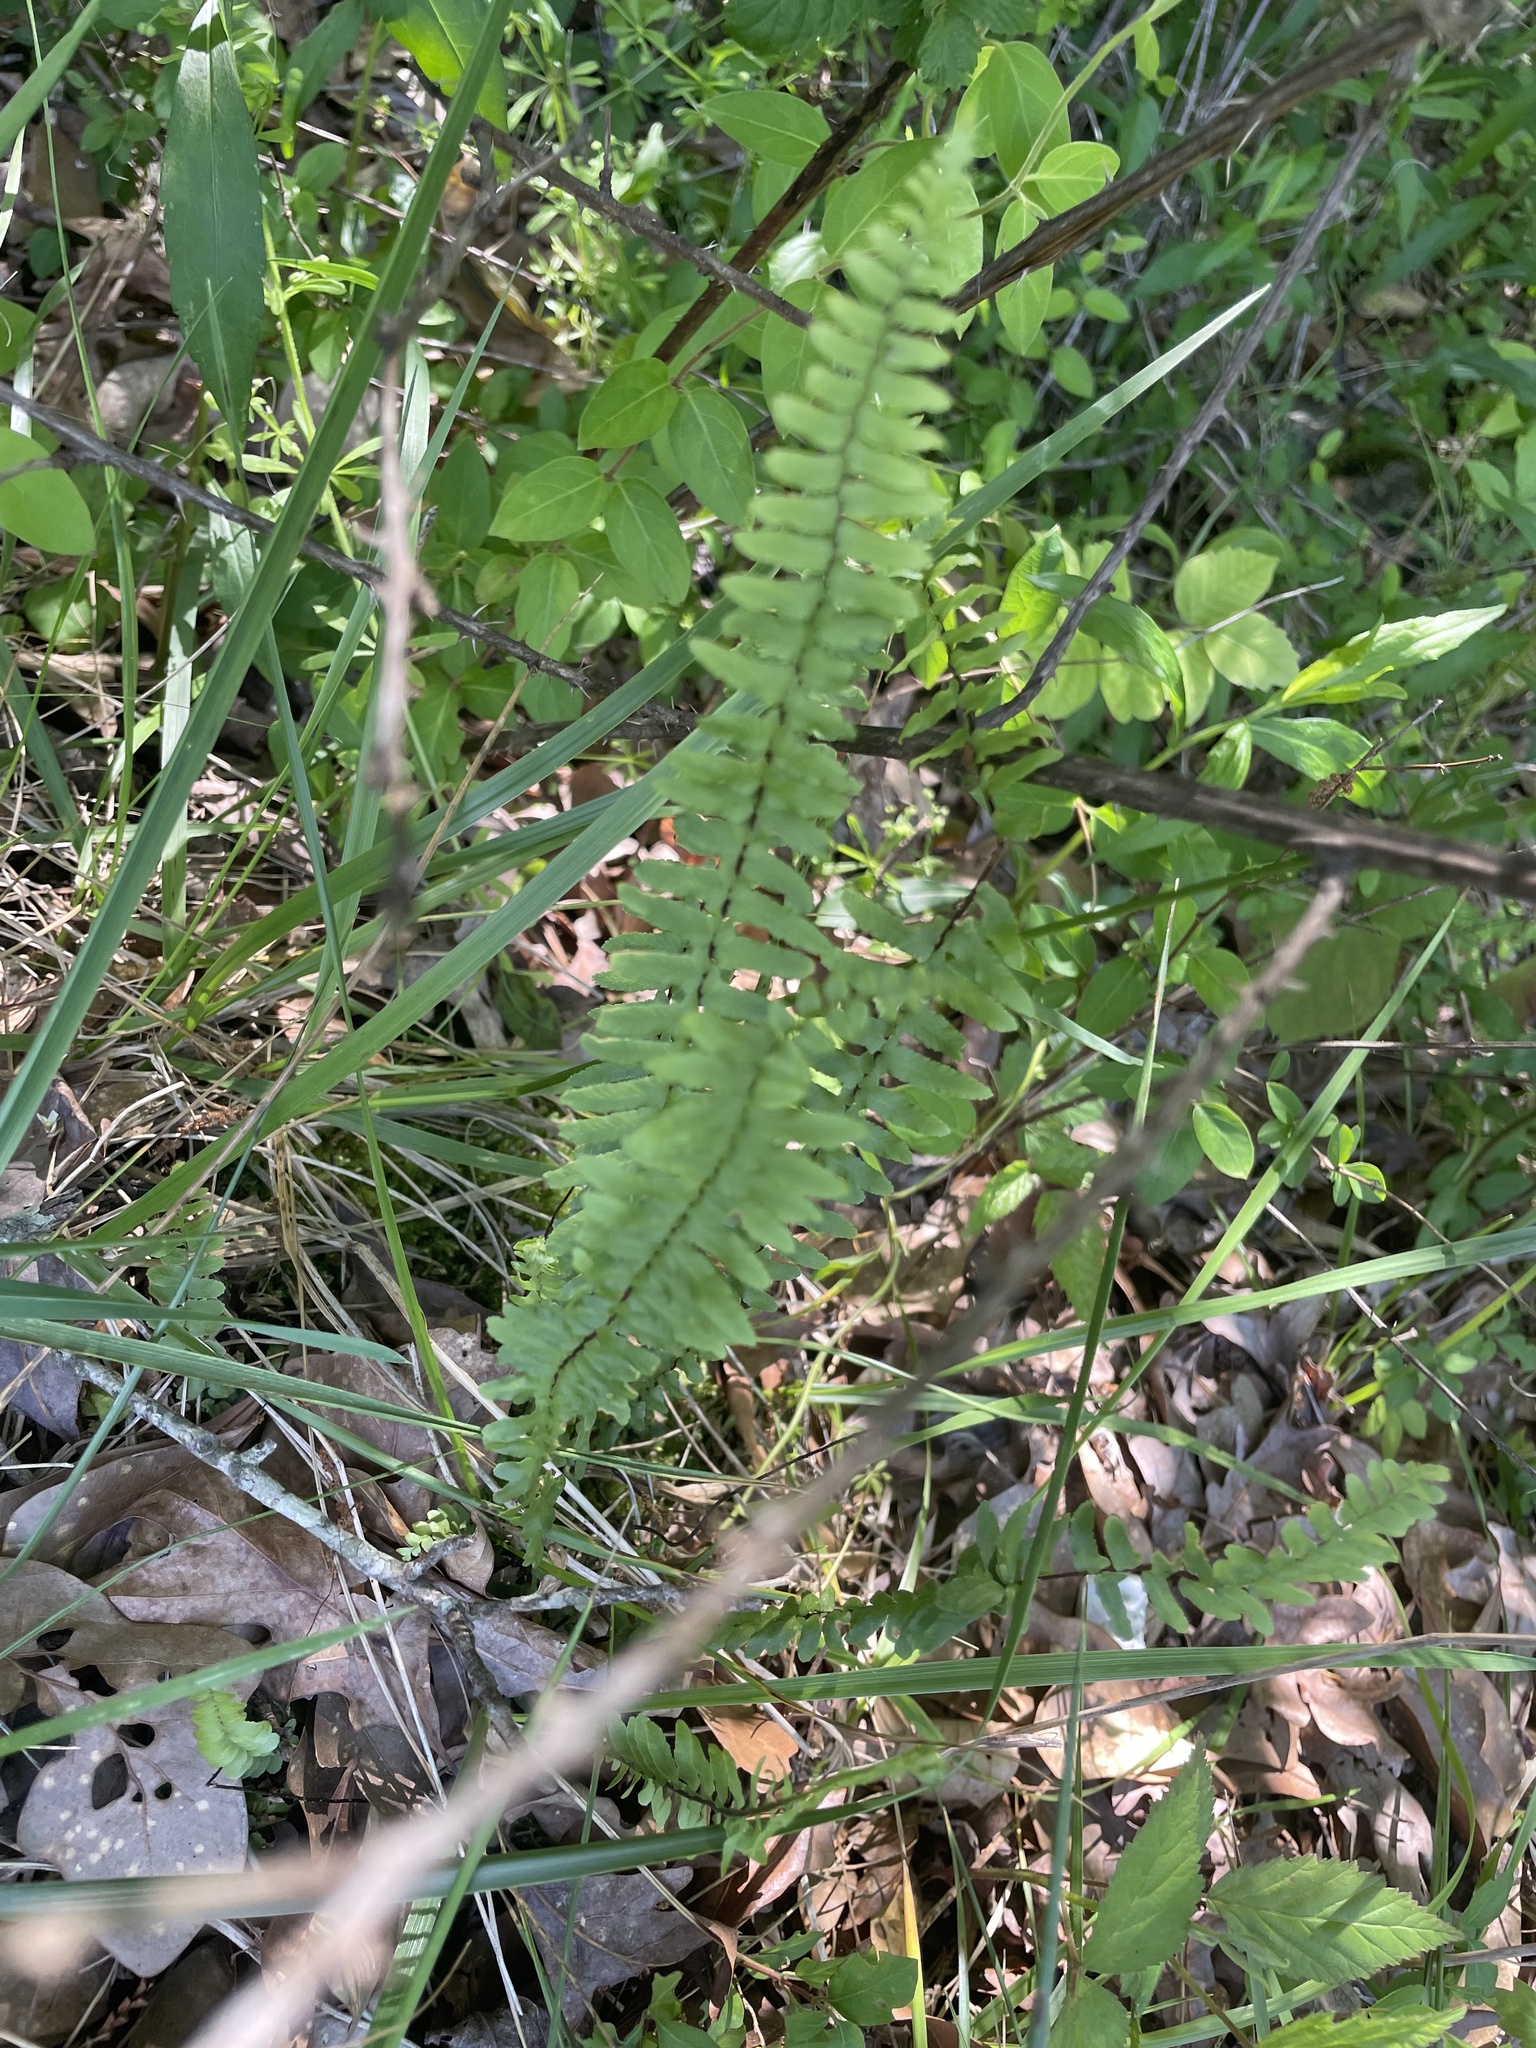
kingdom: Plantae
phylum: Tracheophyta
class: Polypodiopsida
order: Polypodiales
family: Aspleniaceae
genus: Asplenium
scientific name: Asplenium platyneuron
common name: Ebony spleenwort
